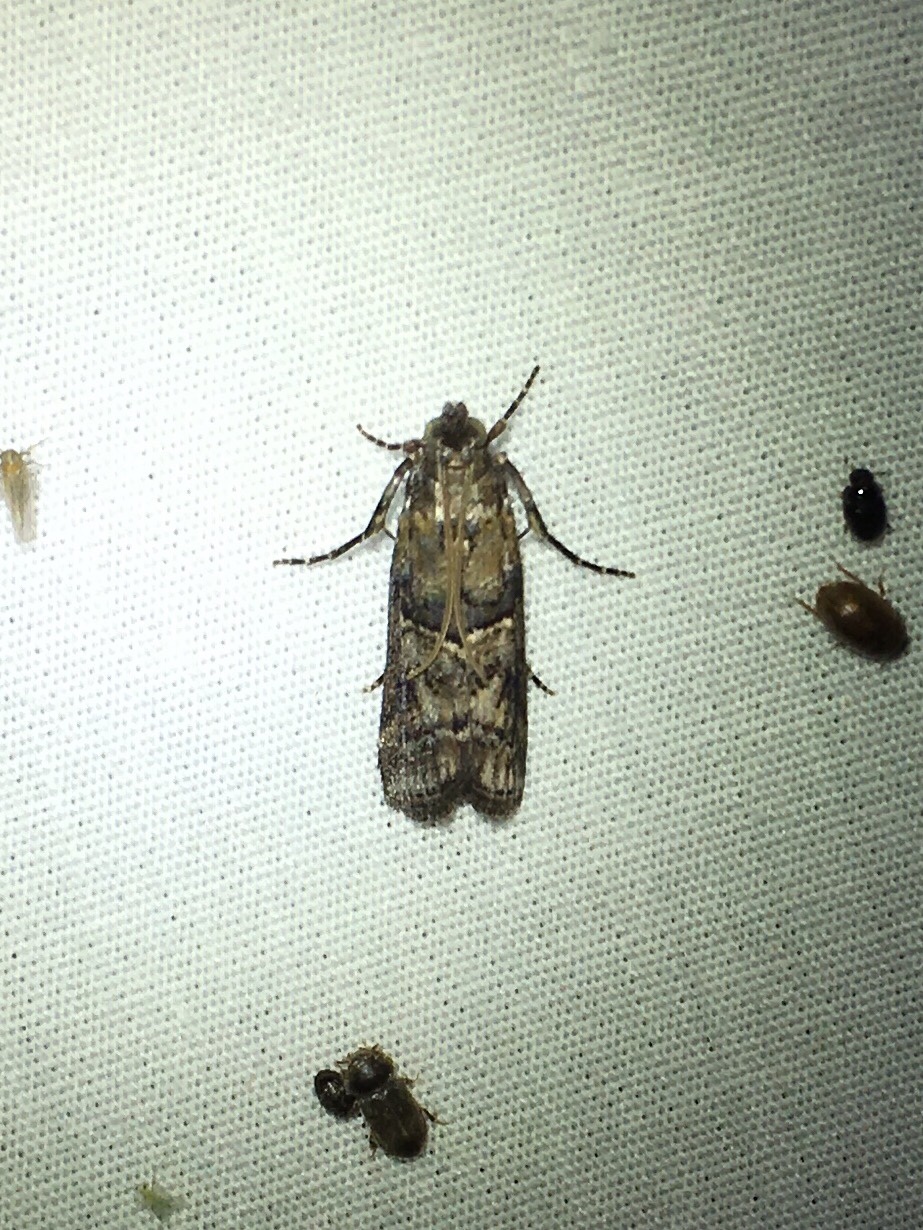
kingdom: Animalia
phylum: Arthropoda
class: Insecta
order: Lepidoptera
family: Pyralidae
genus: Dioryctria
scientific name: Dioryctria clarioralis
